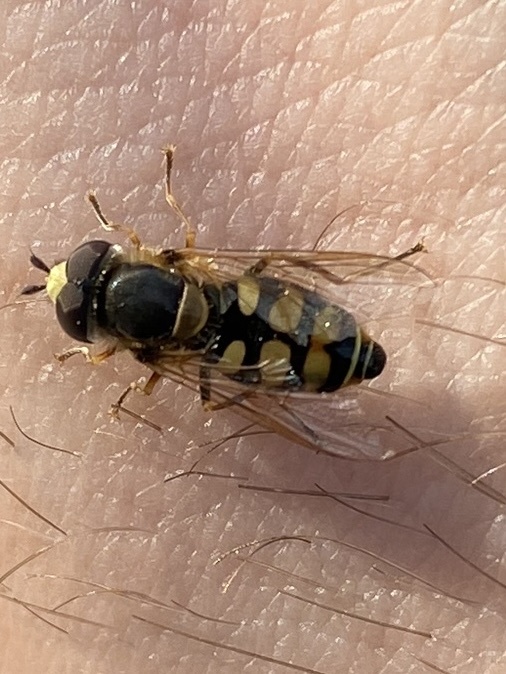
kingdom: Animalia
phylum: Arthropoda
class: Insecta
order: Diptera
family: Syrphidae
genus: Eupeodes
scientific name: Eupeodes corollae
